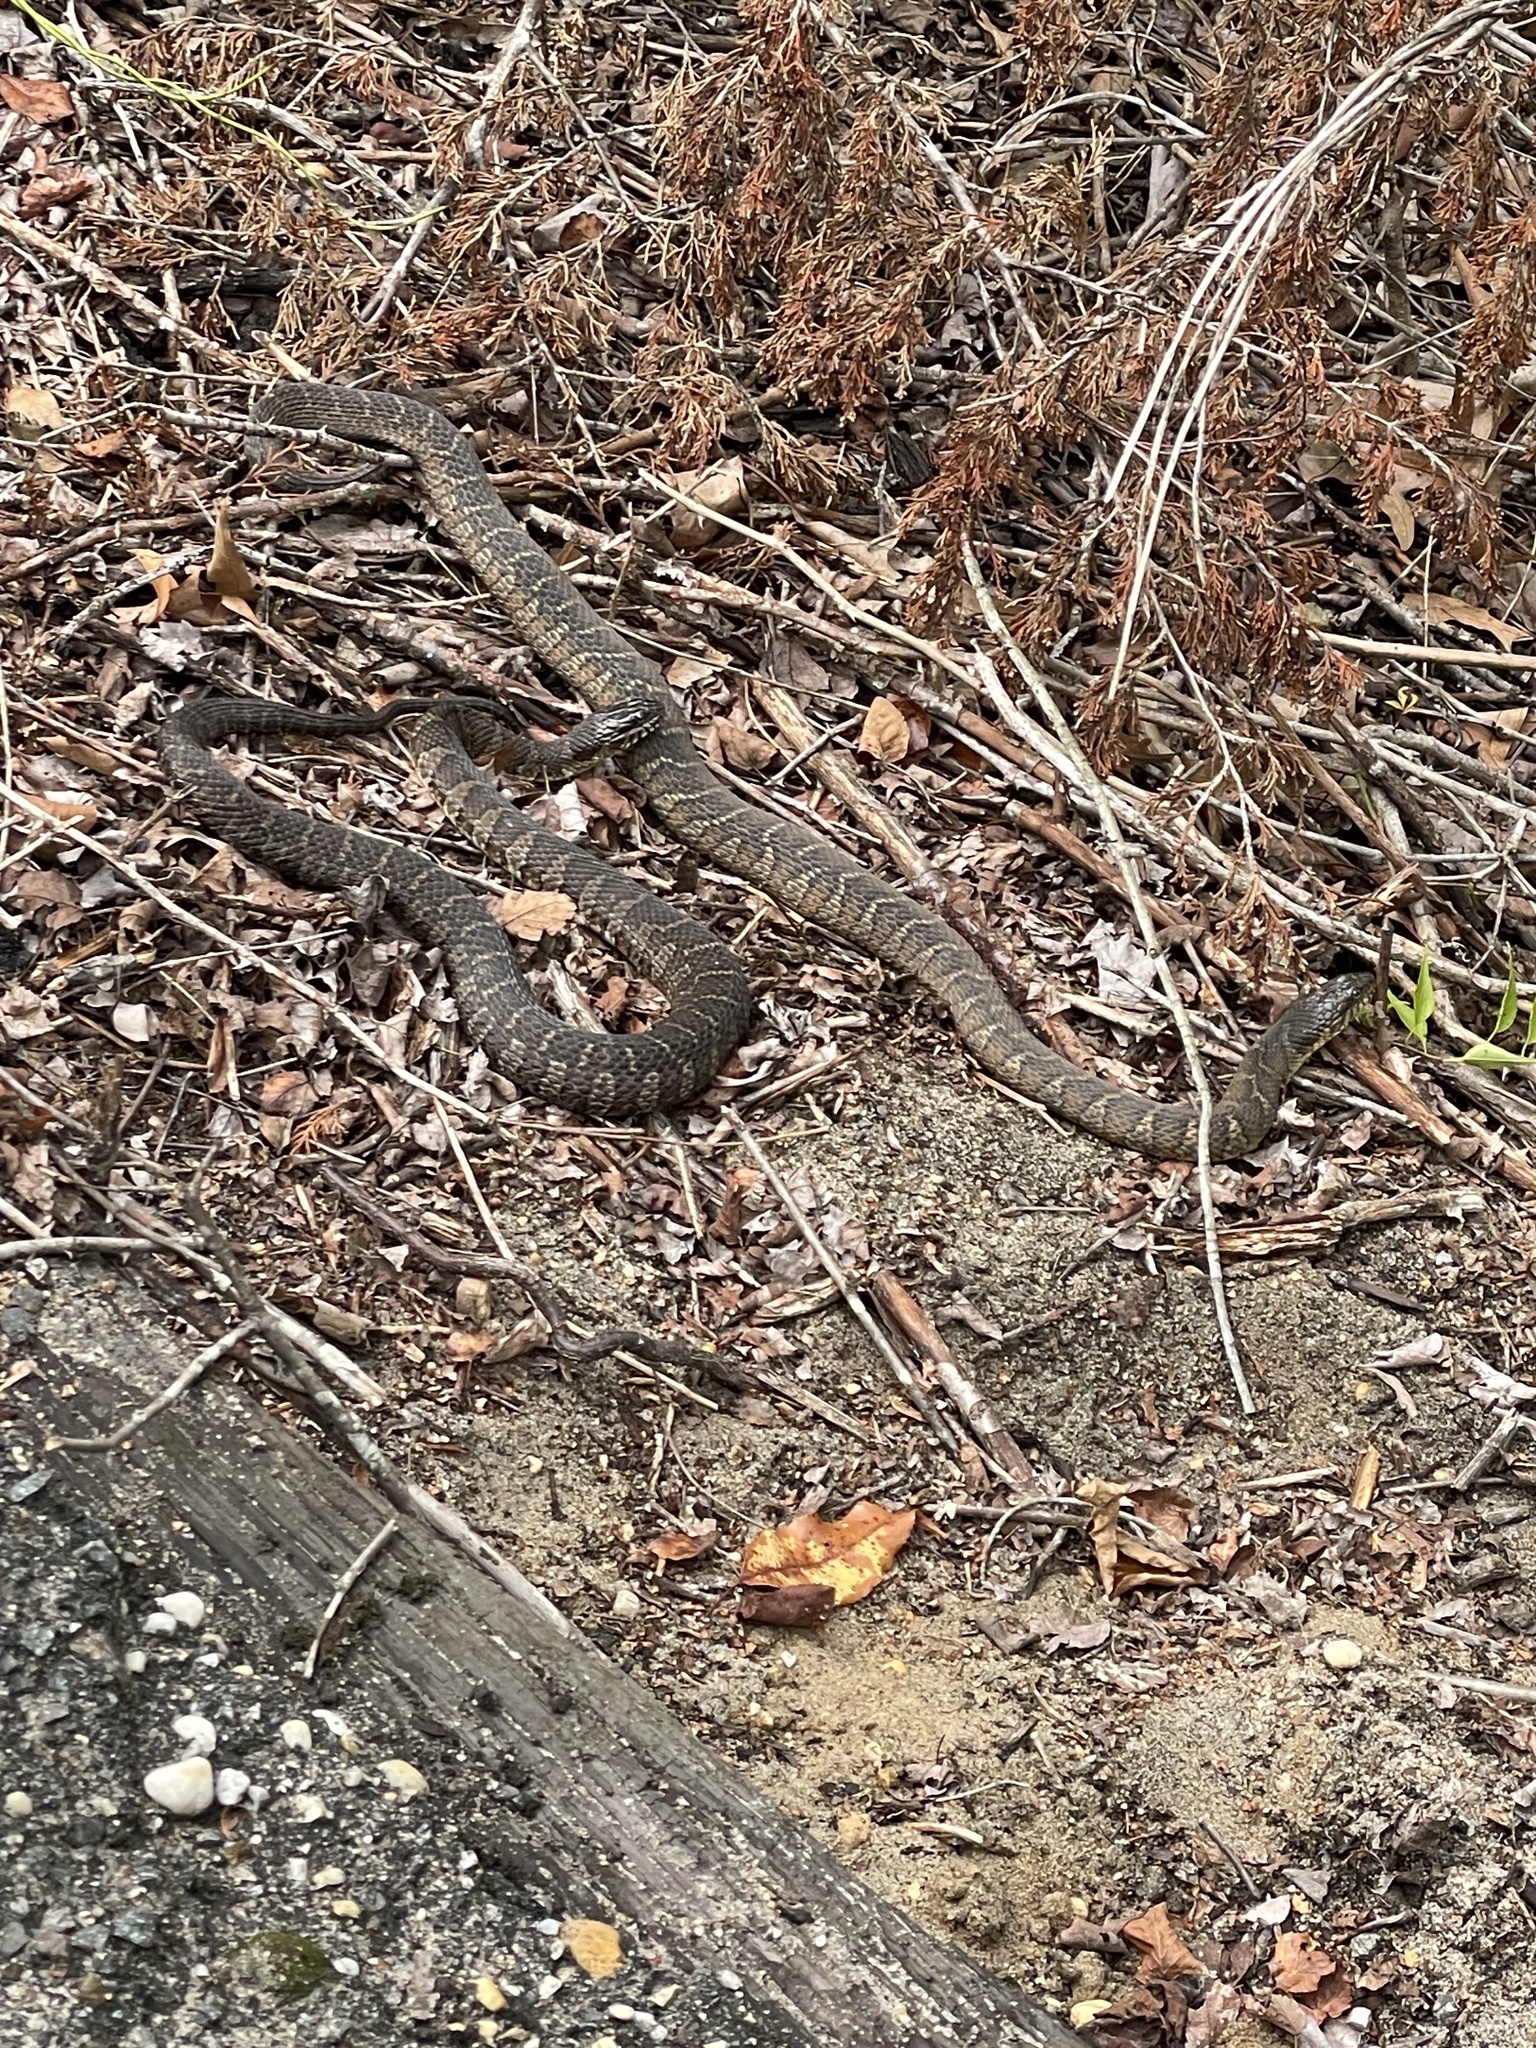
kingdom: Animalia
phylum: Chordata
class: Squamata
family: Colubridae
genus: Nerodia
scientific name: Nerodia sipedon
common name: Northern water snake
